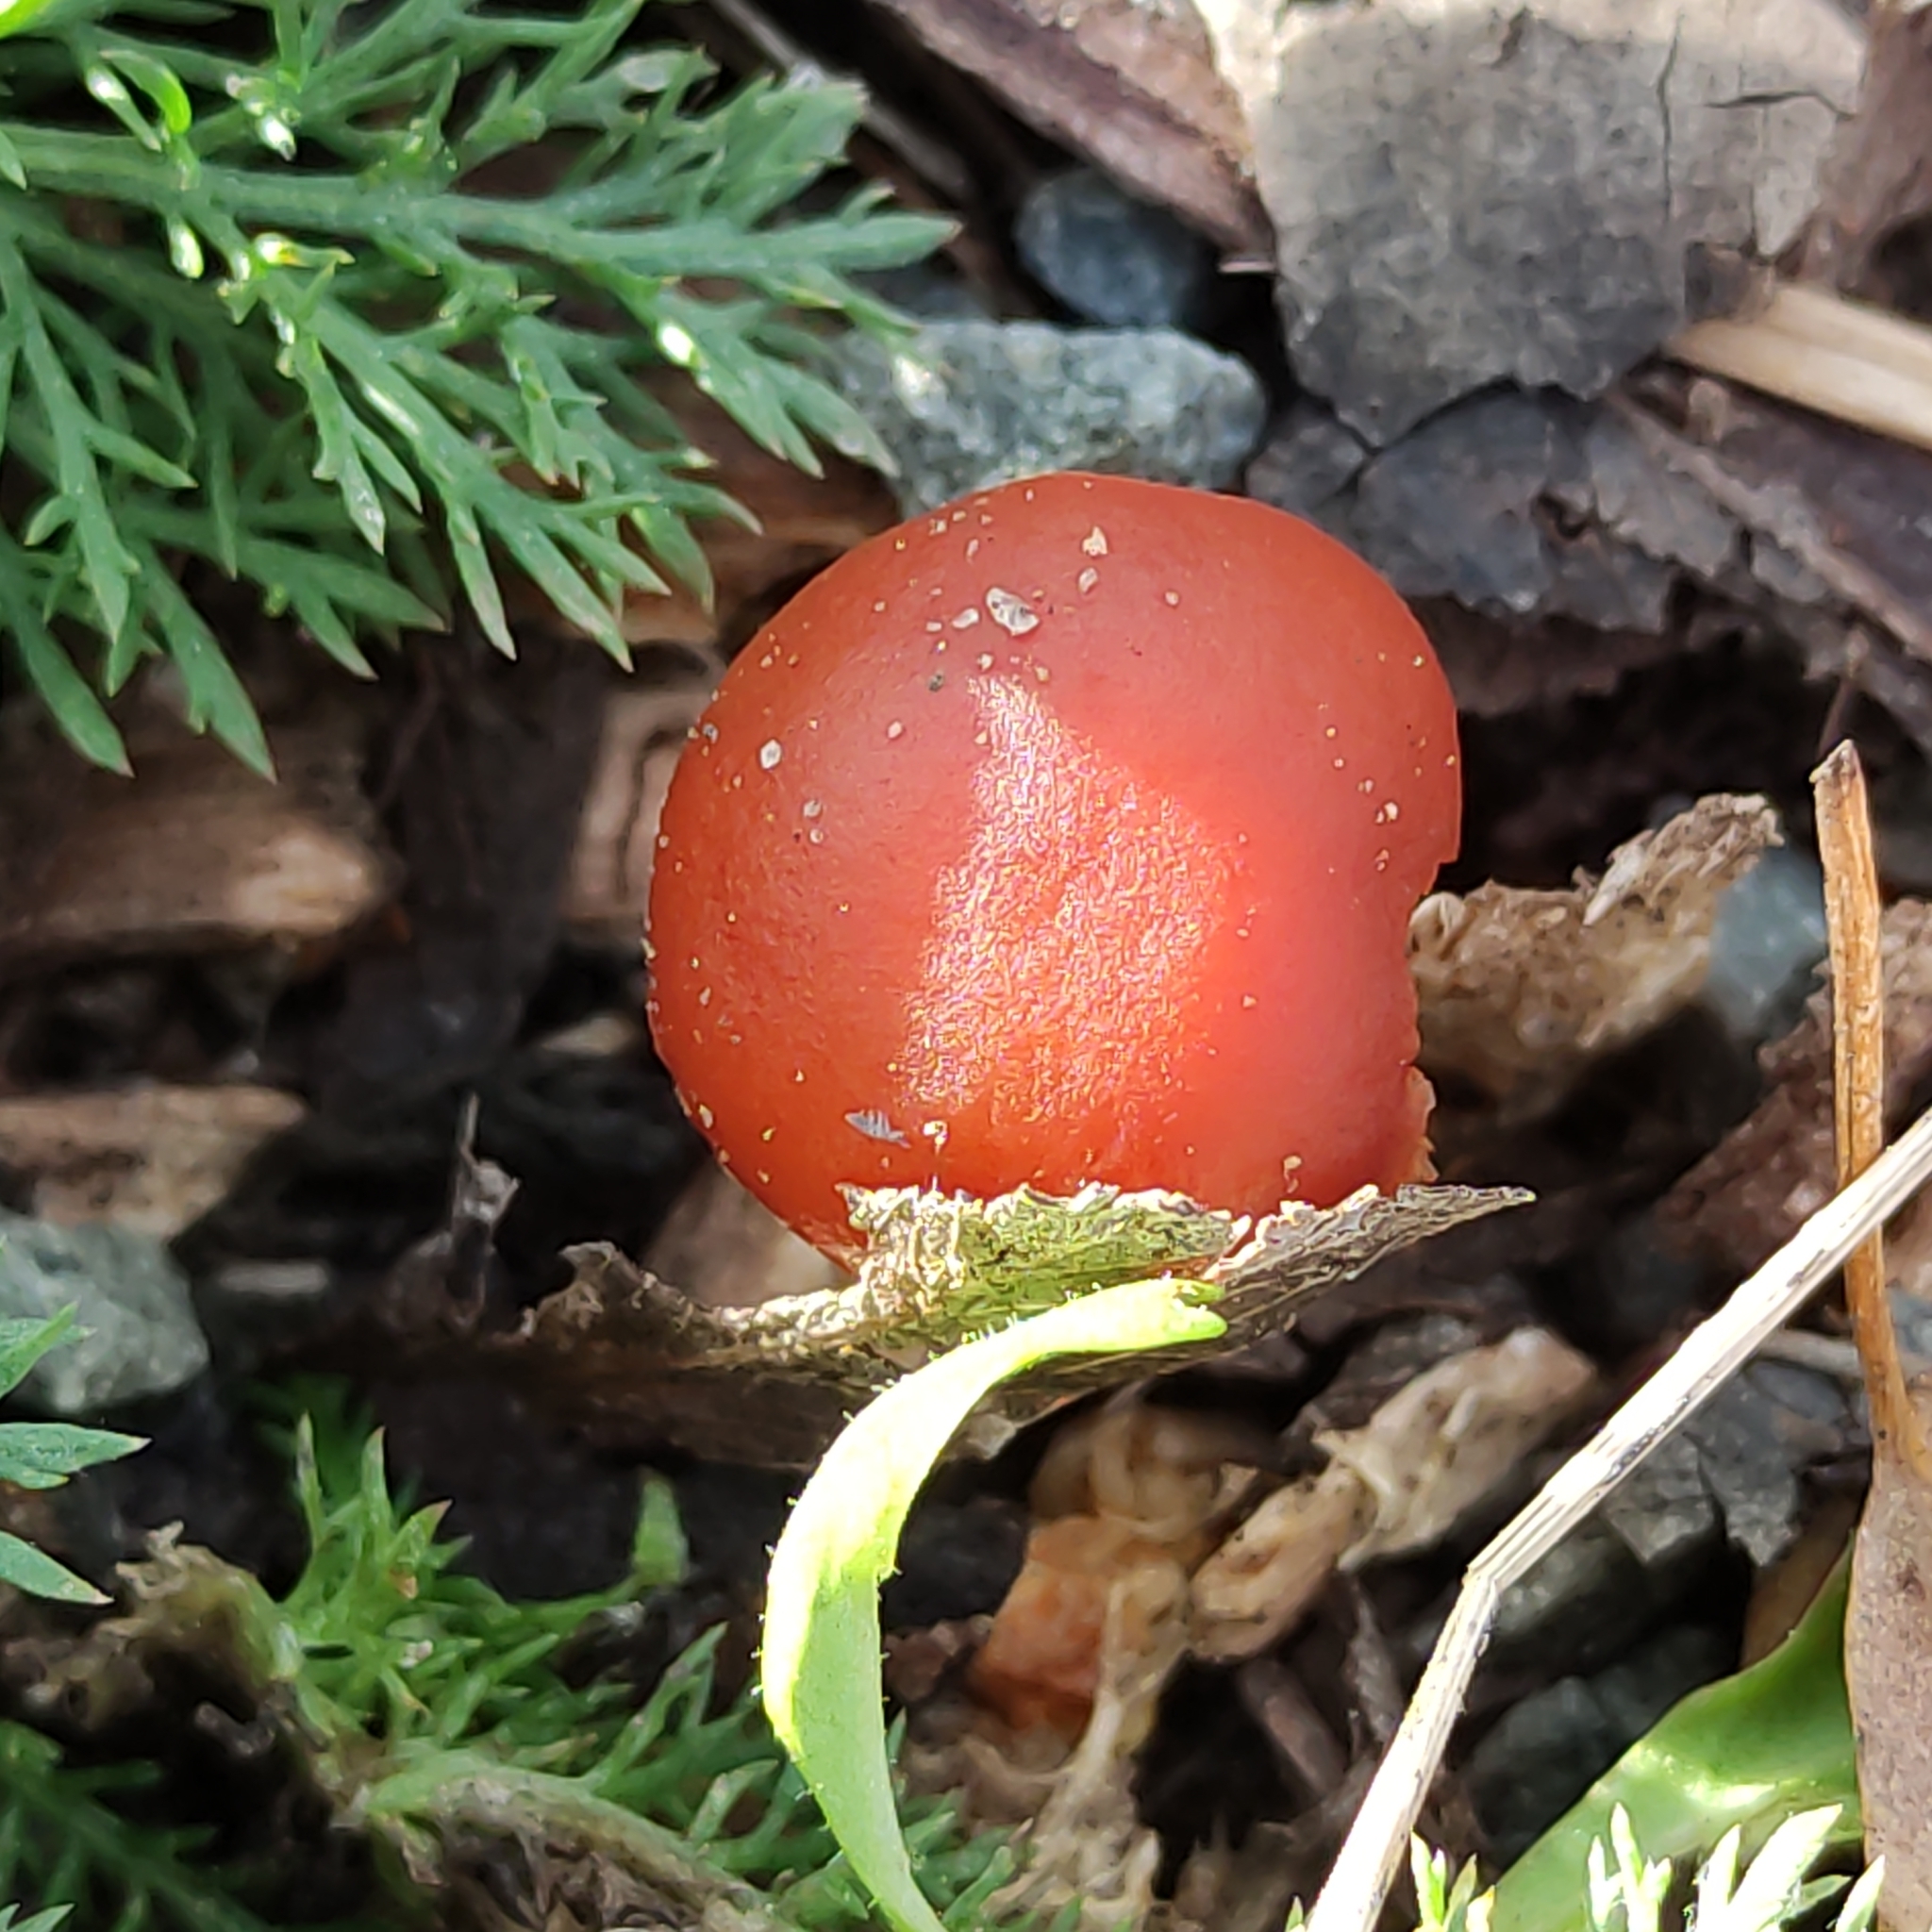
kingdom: Fungi
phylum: Basidiomycota
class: Agaricomycetes
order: Agaricales
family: Strophariaceae
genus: Leratiomyces
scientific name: Leratiomyces ceres
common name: Redlead roundhead
